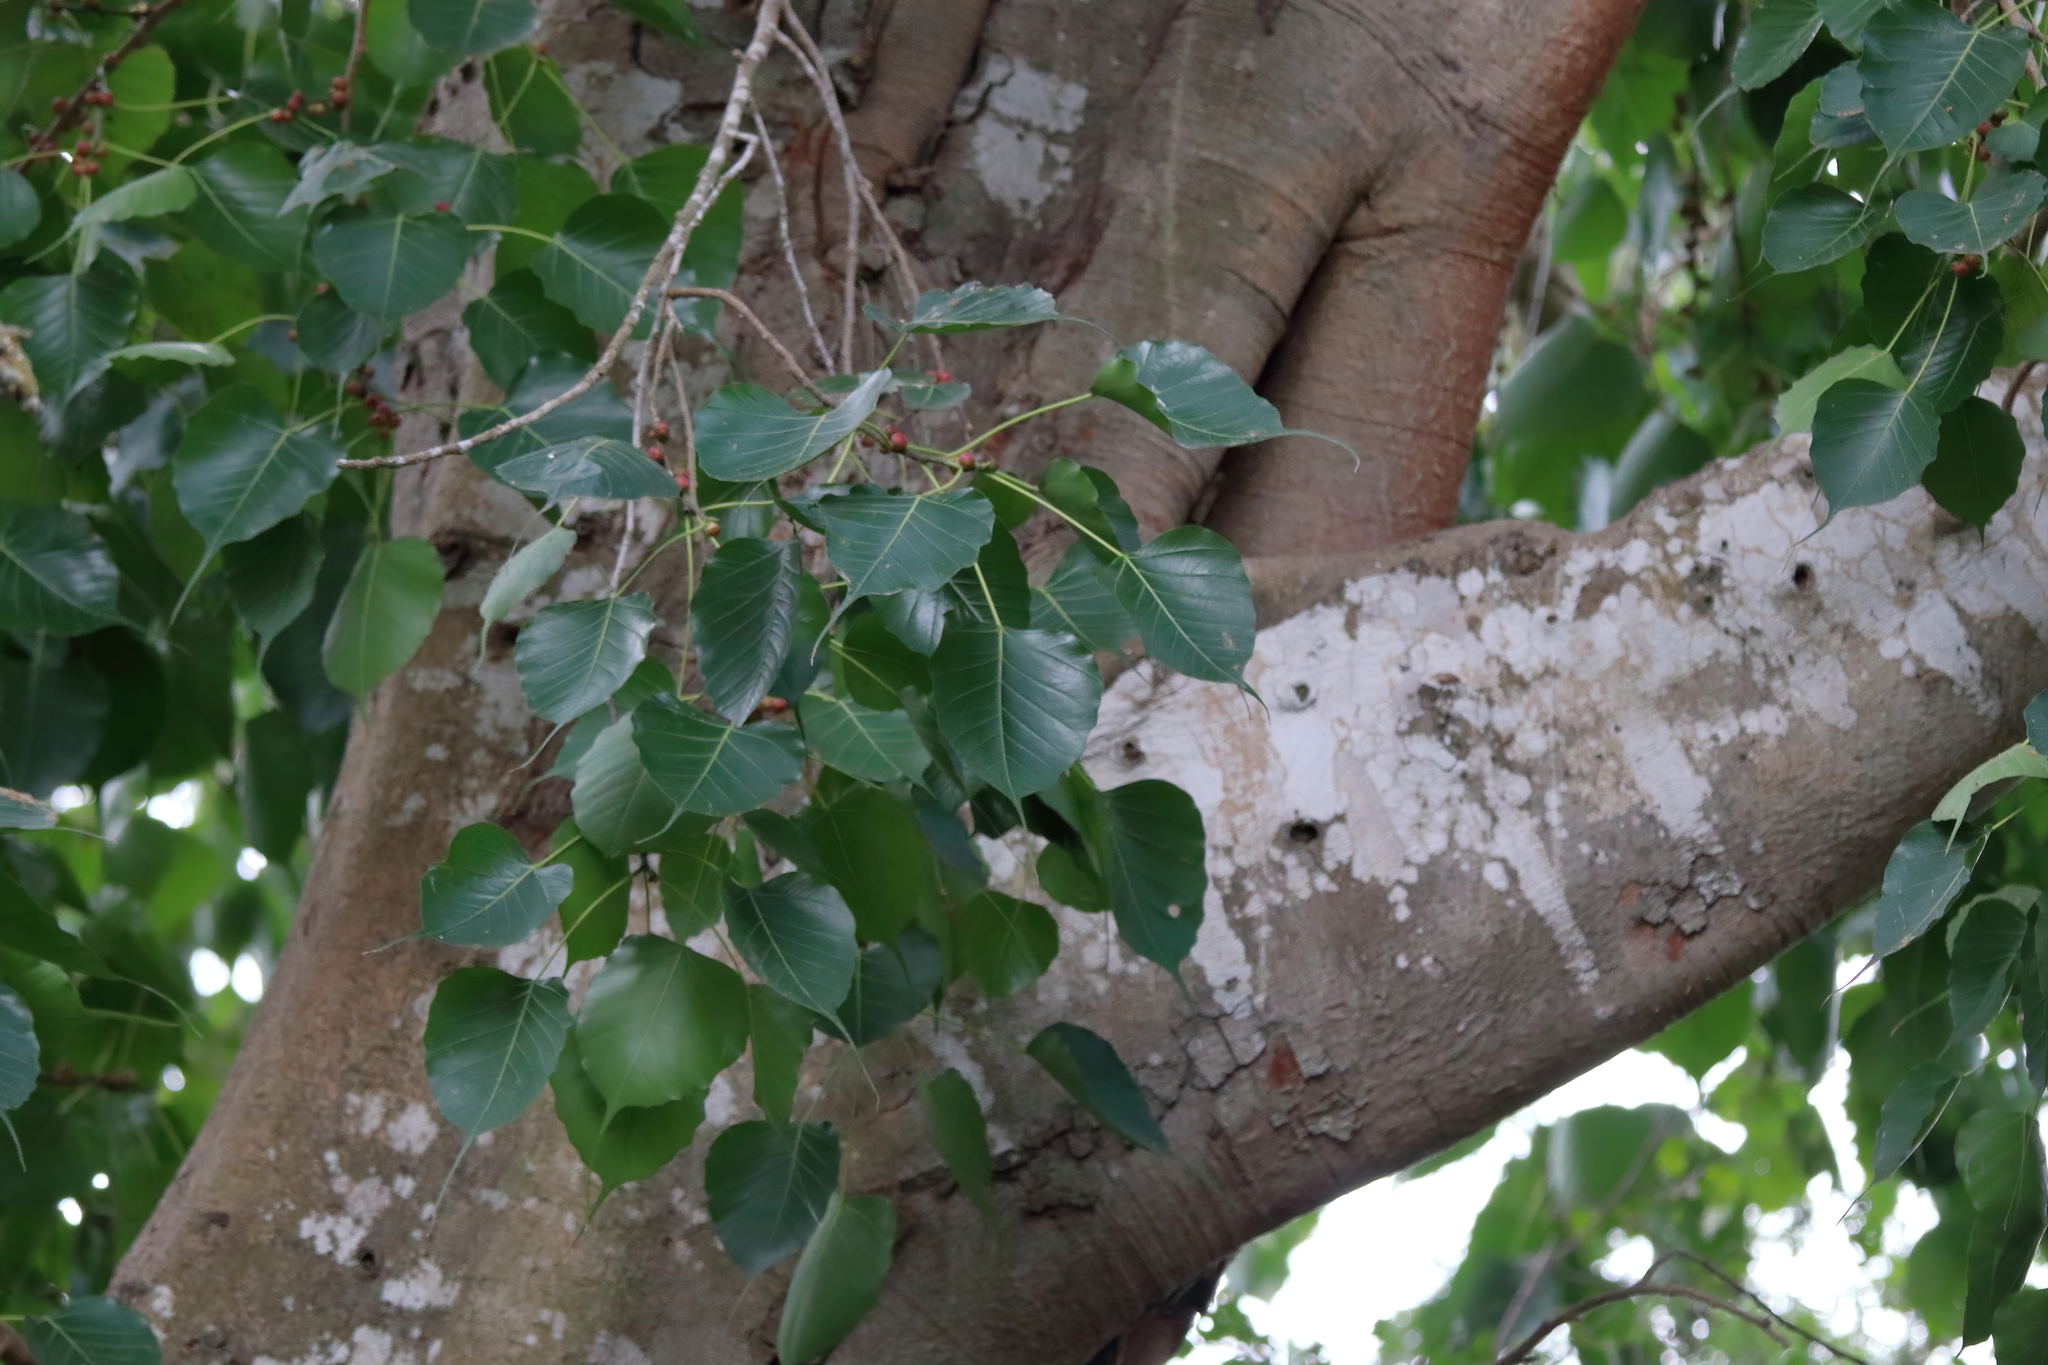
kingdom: Plantae
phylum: Tracheophyta
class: Magnoliopsida
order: Rosales
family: Moraceae
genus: Ficus
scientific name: Ficus religiosa
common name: Bodhi tree
